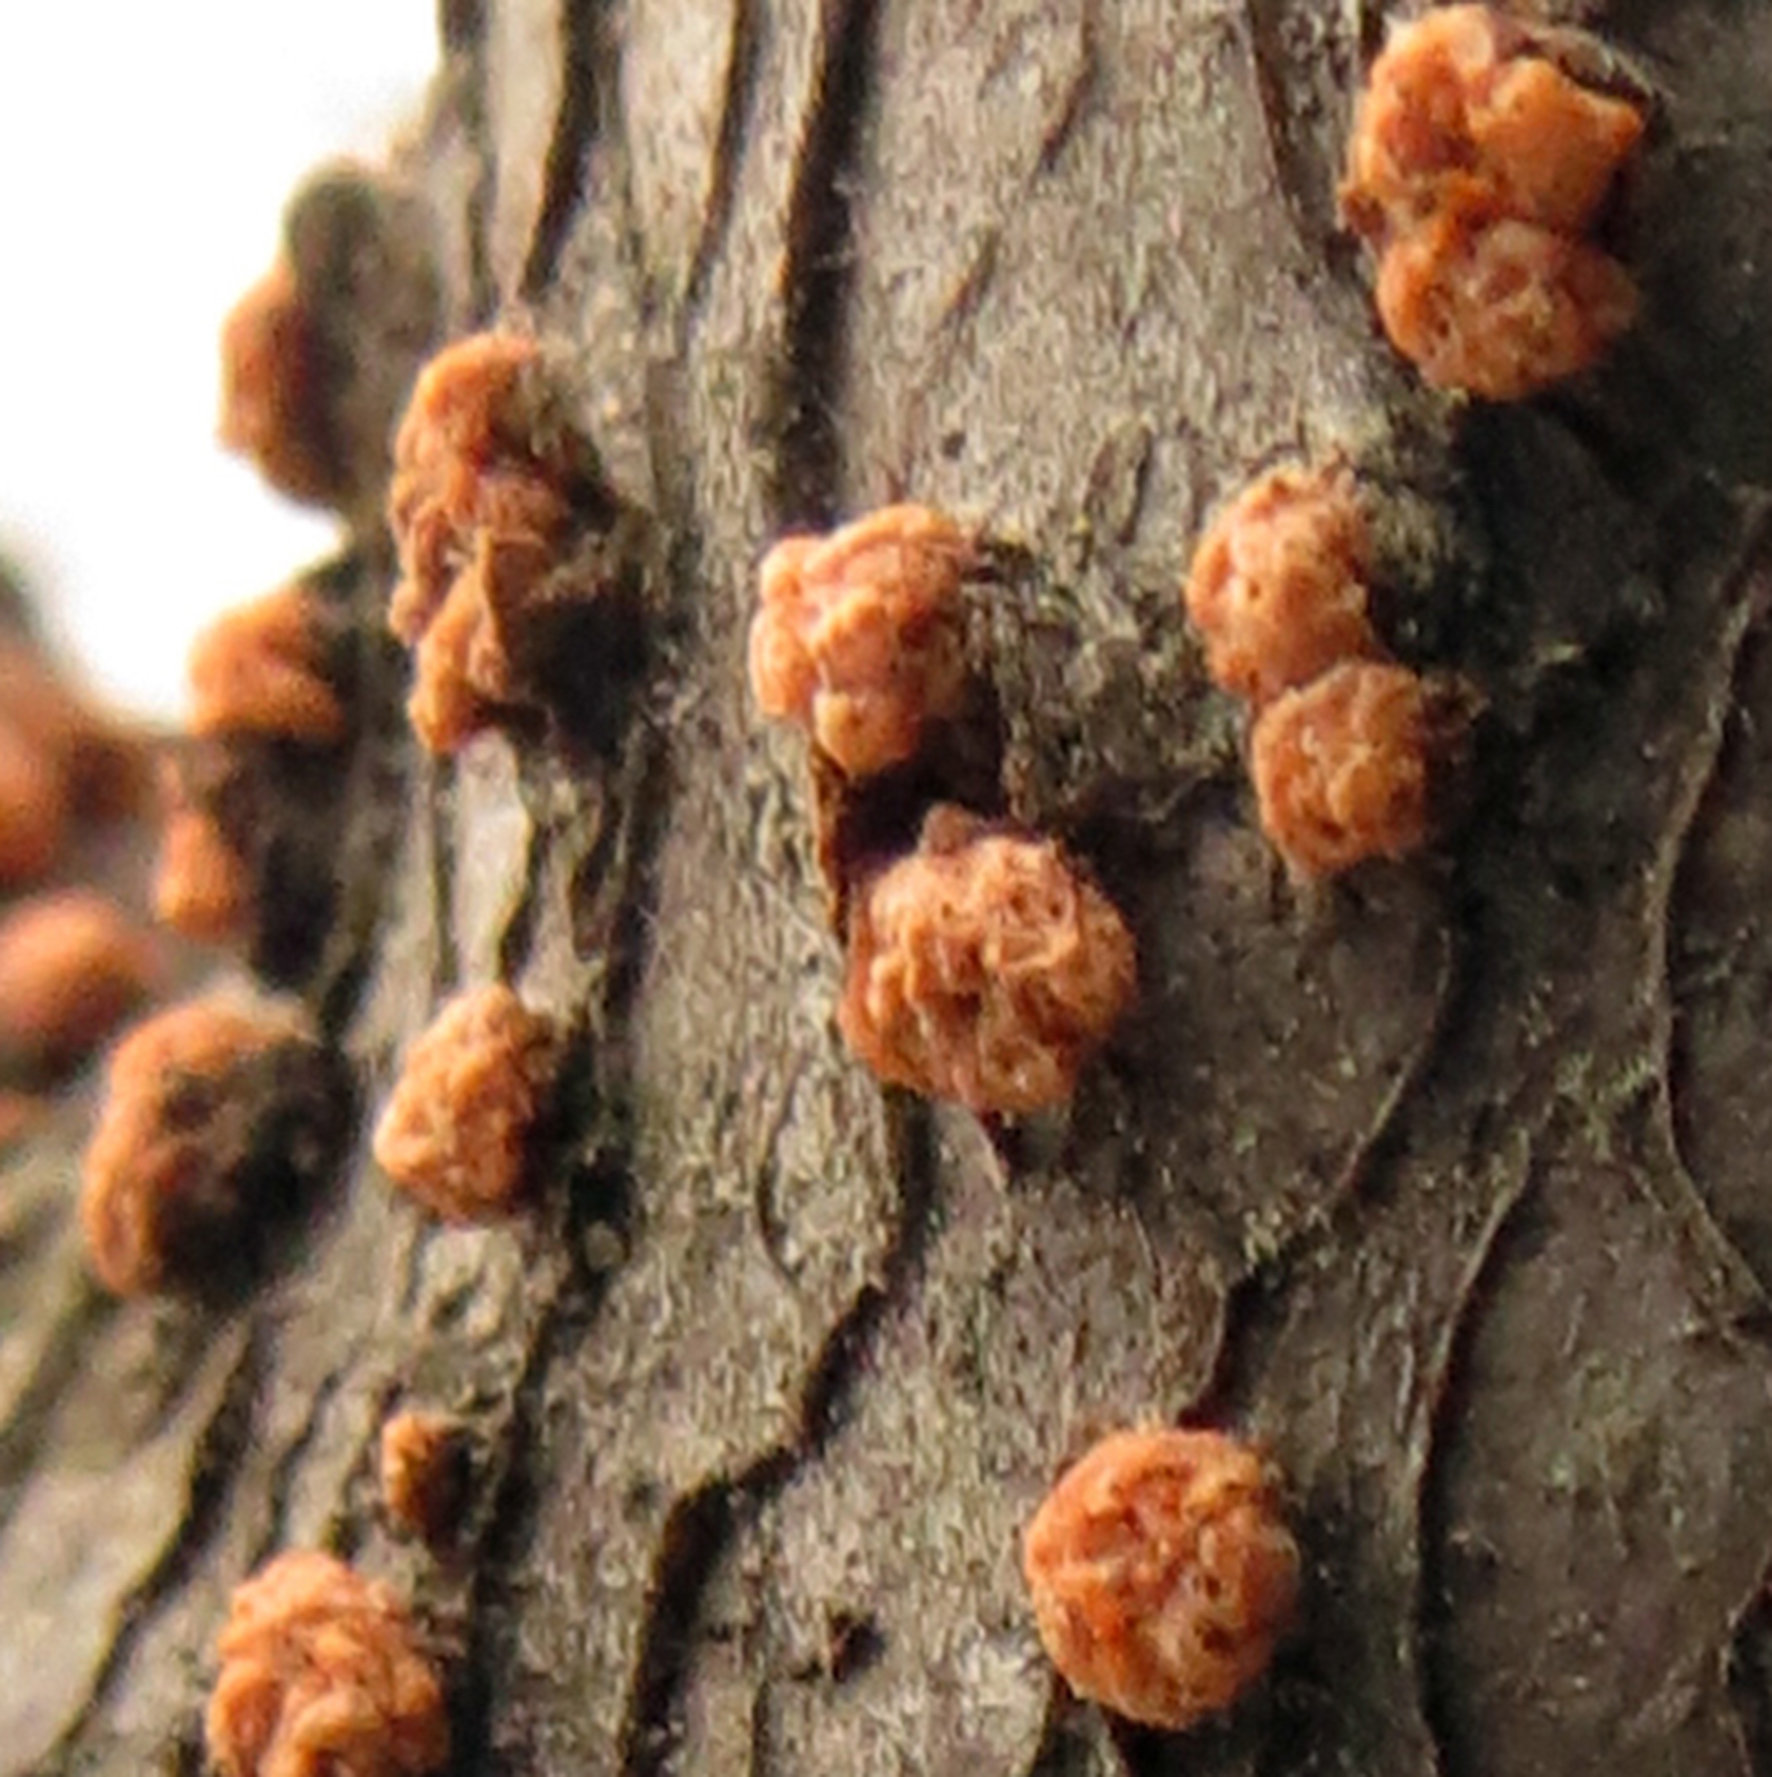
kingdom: Fungi
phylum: Ascomycota
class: Sordariomycetes
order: Hypocreales
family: Nectriaceae
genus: Nectria
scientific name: Nectria cinnabarina
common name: Coral spot
